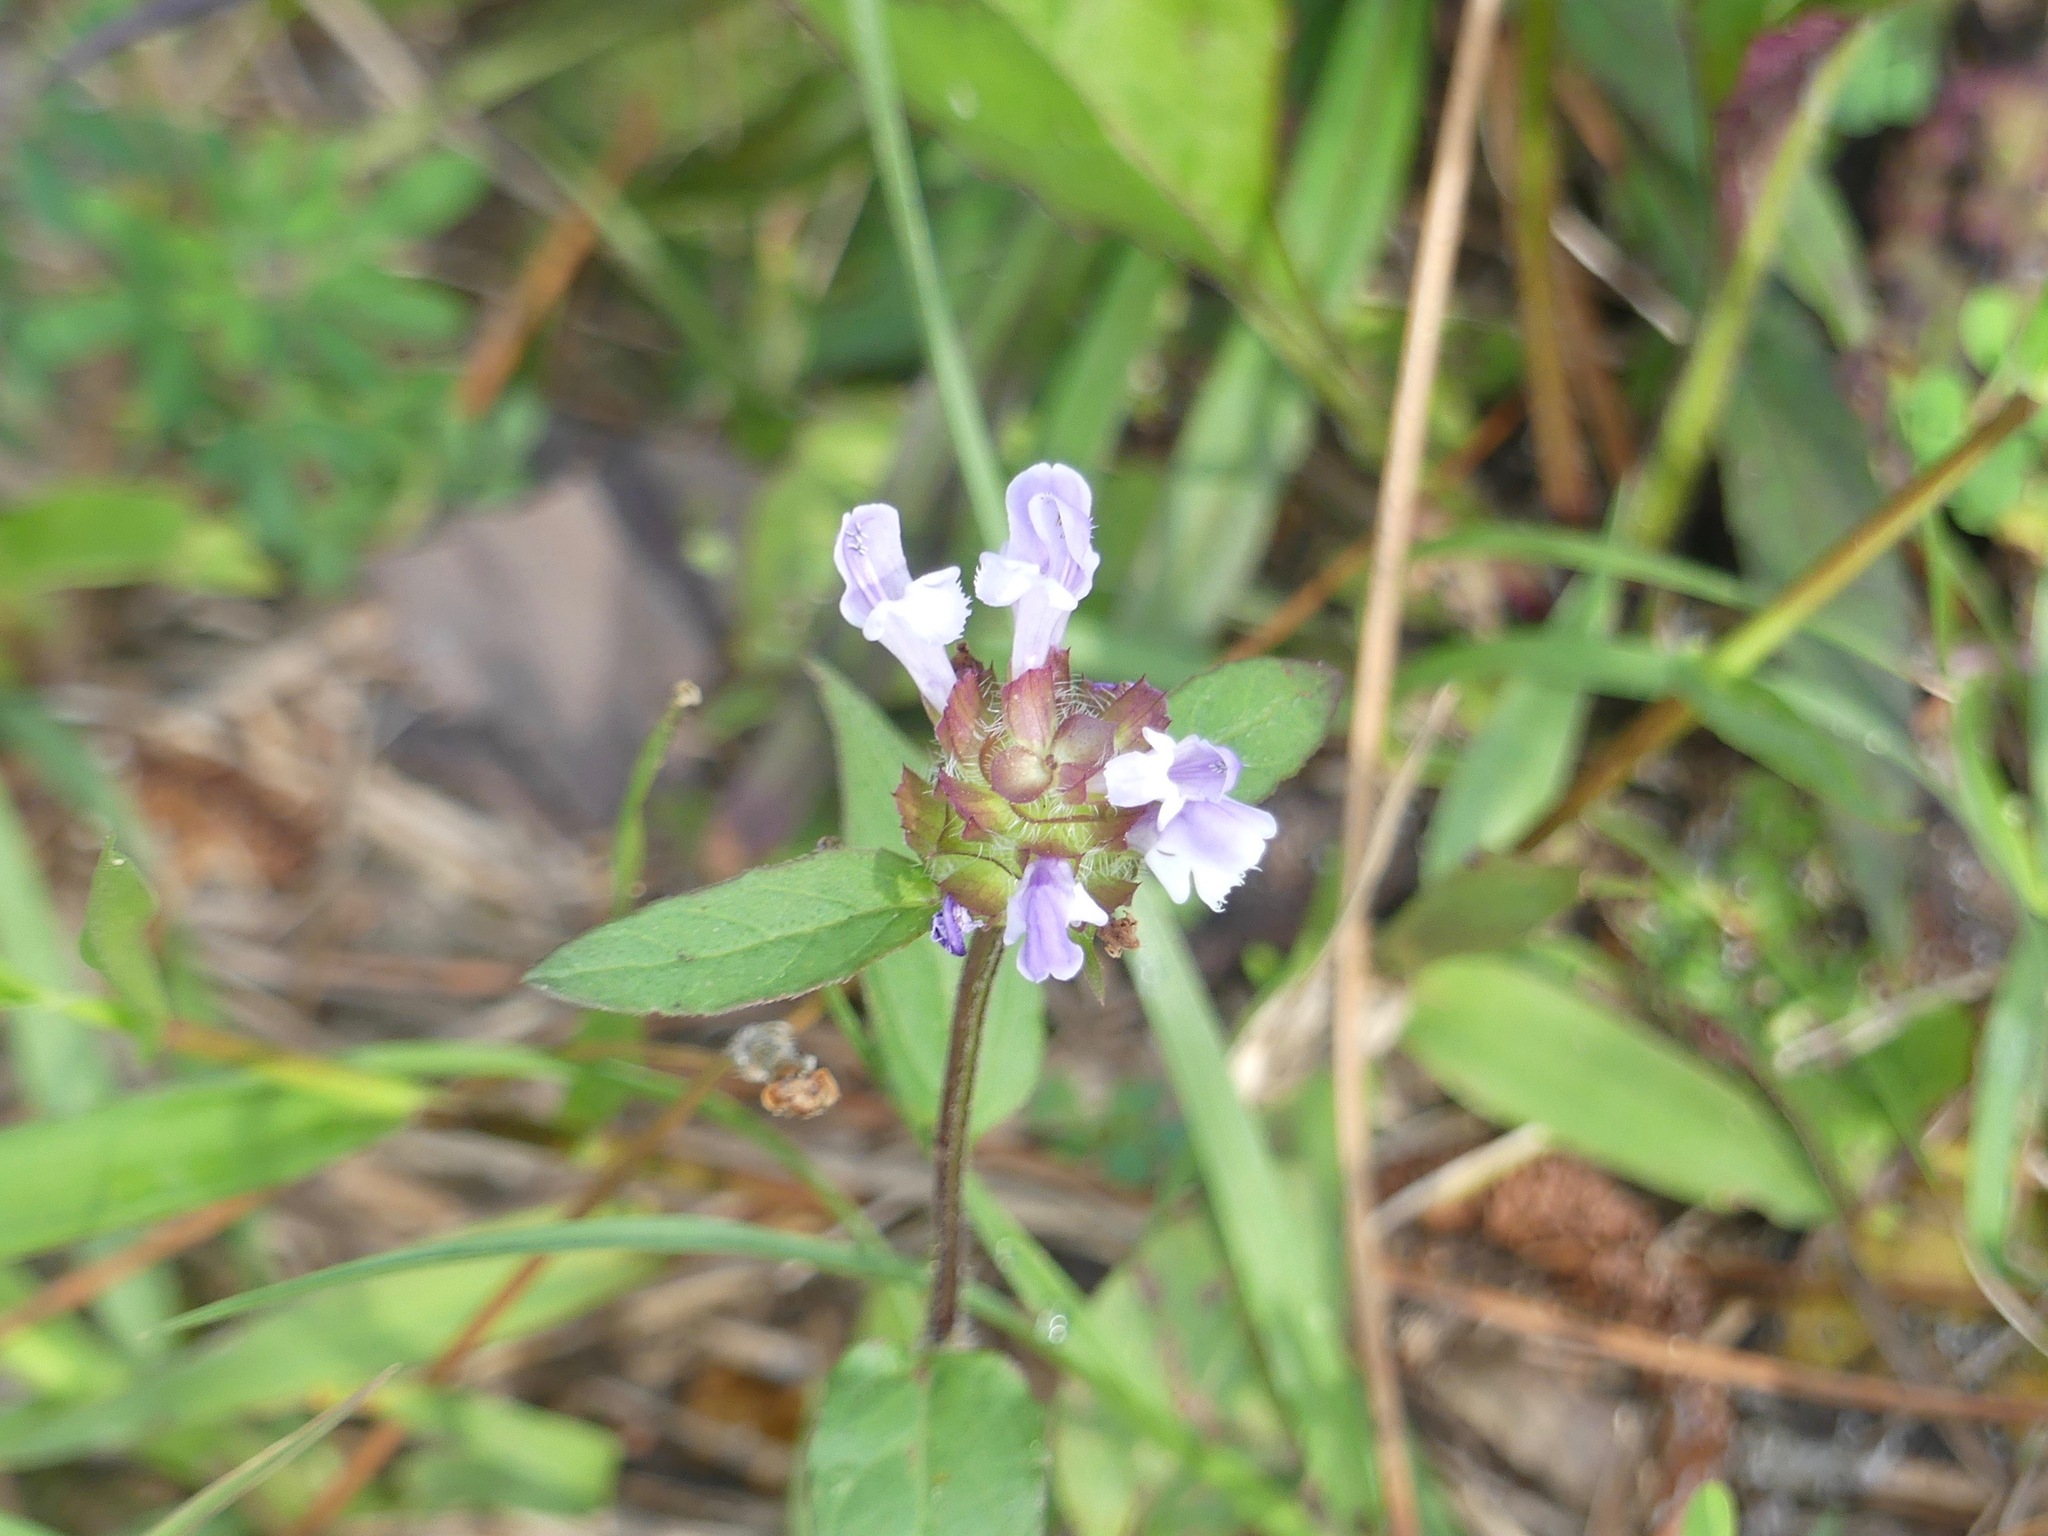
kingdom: Plantae
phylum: Tracheophyta
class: Magnoliopsida
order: Lamiales
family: Lamiaceae
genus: Prunella
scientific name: Prunella vulgaris
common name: Heal-all
